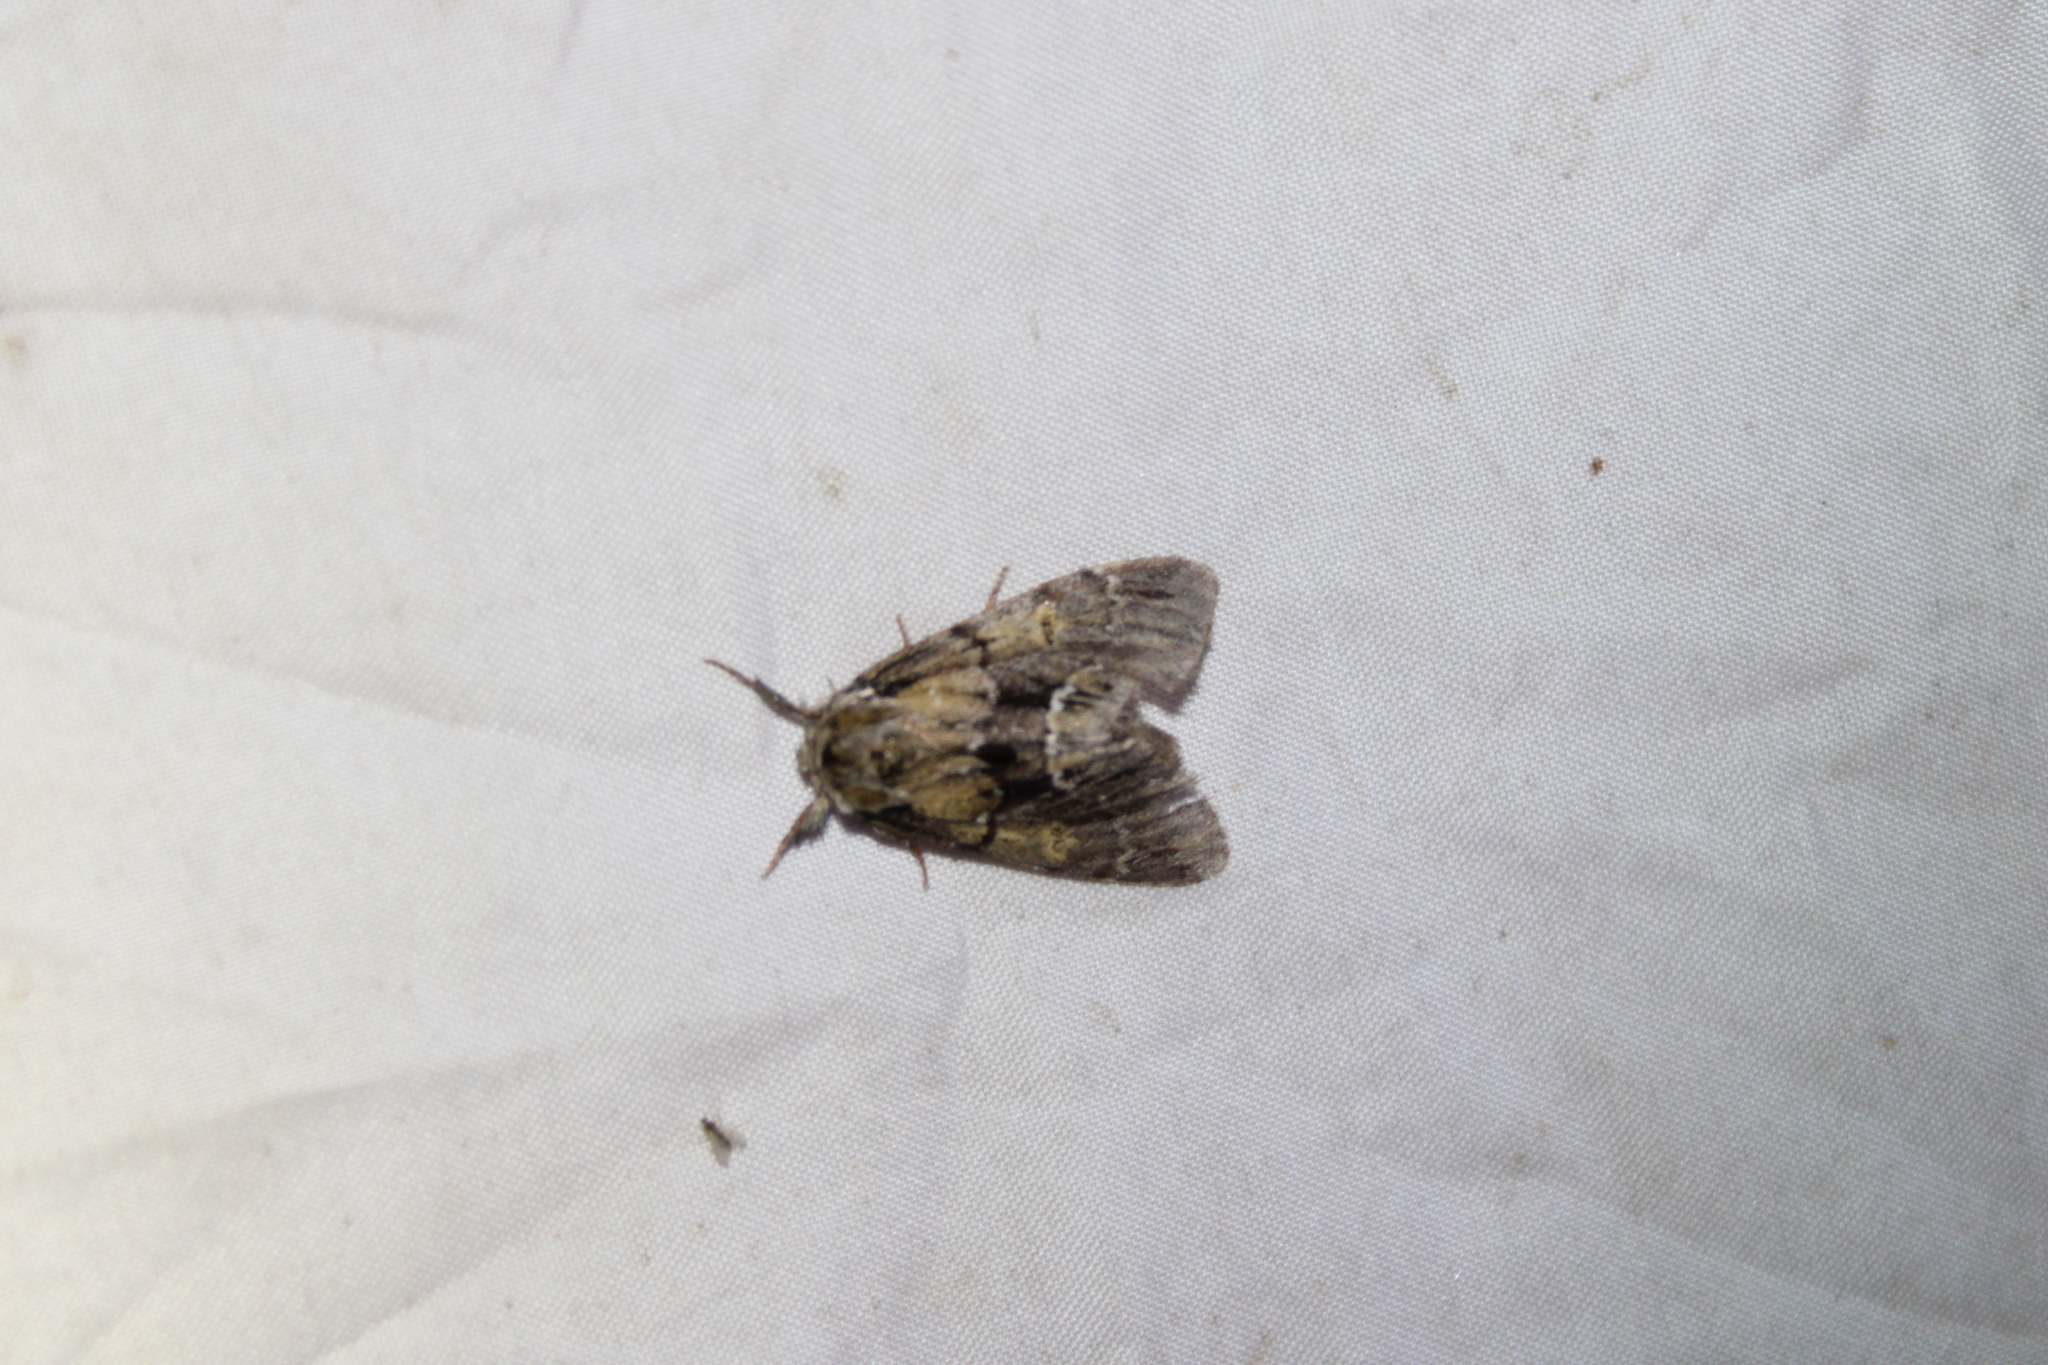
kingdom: Animalia
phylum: Arthropoda
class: Insecta
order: Lepidoptera
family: Notodontidae
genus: Paraeschra
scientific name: Paraeschra georgica
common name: Georgian prominent
